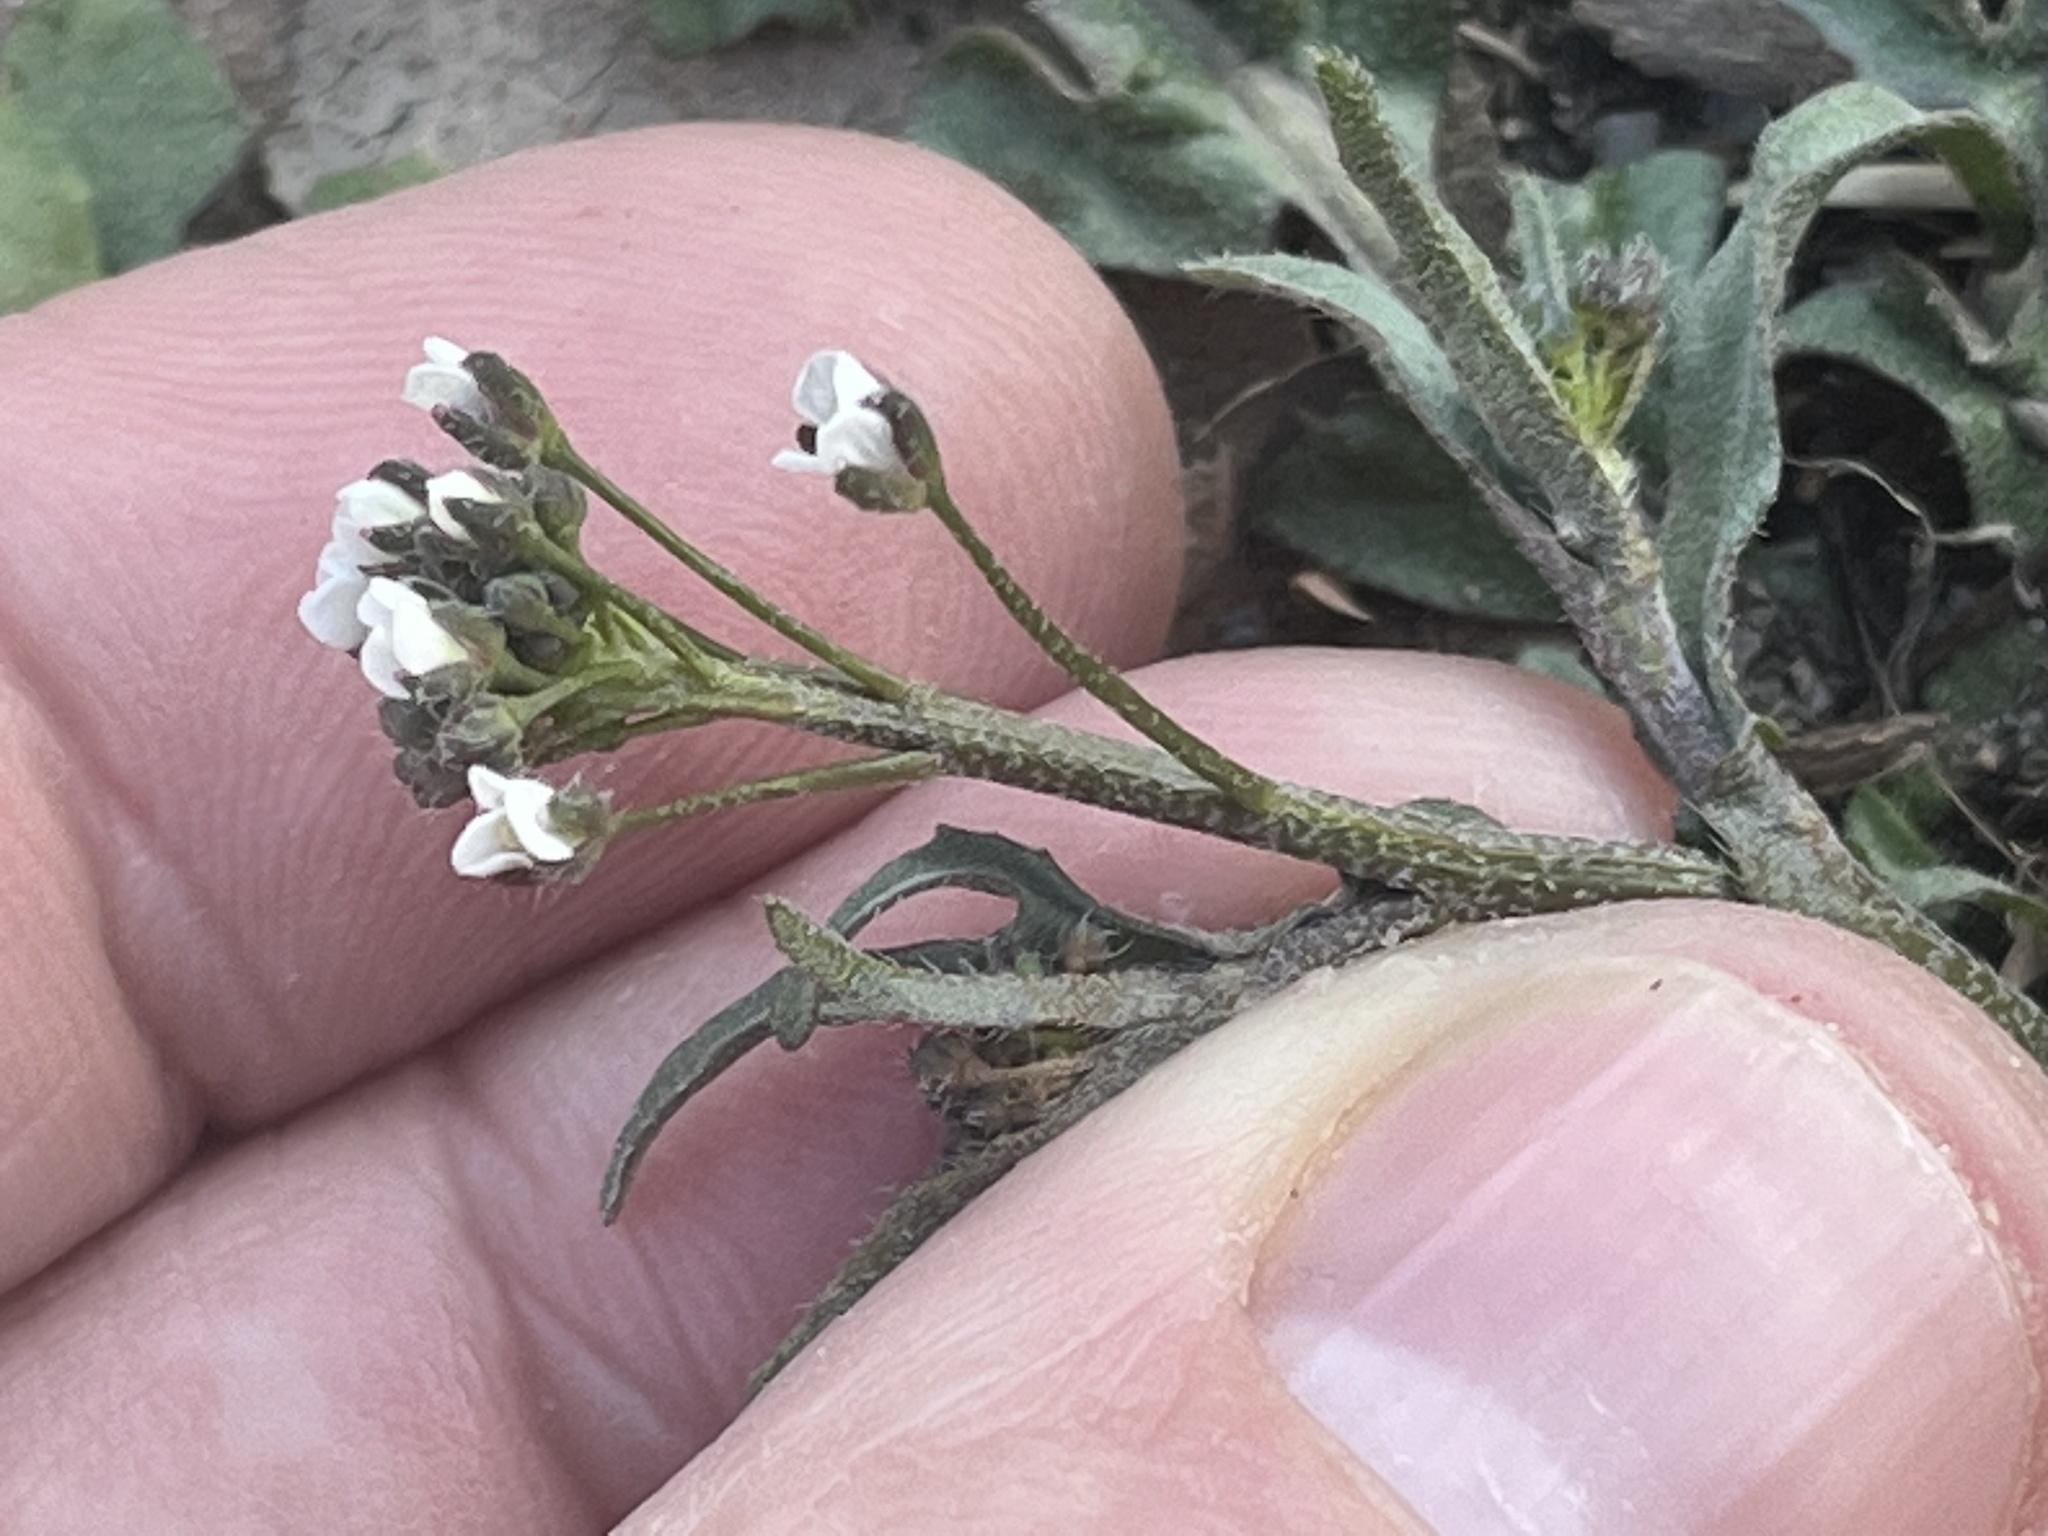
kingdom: Plantae
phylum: Tracheophyta
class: Magnoliopsida
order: Brassicales
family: Brassicaceae
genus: Capsella
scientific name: Capsella bursa-pastoris
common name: Shepherd's purse
